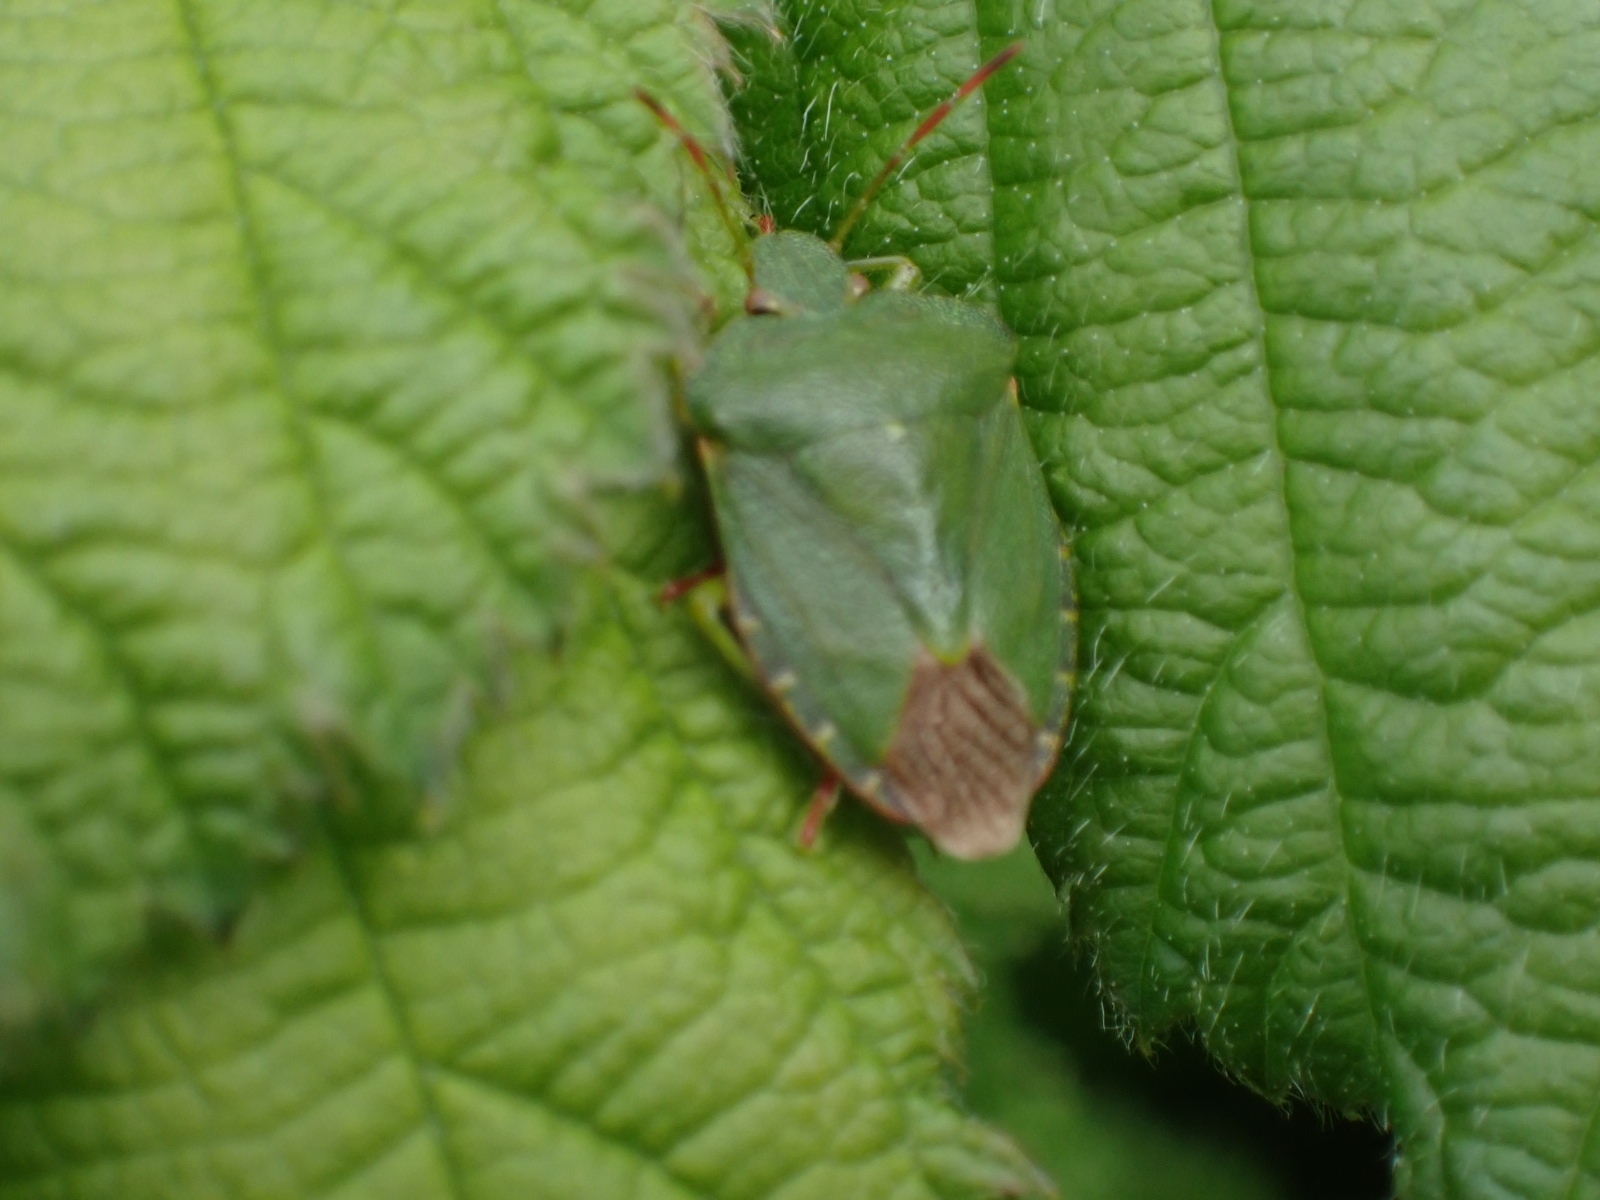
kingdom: Animalia
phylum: Arthropoda
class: Insecta
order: Hemiptera
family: Pentatomidae
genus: Palomena
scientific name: Palomena prasina
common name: Green shieldbug
